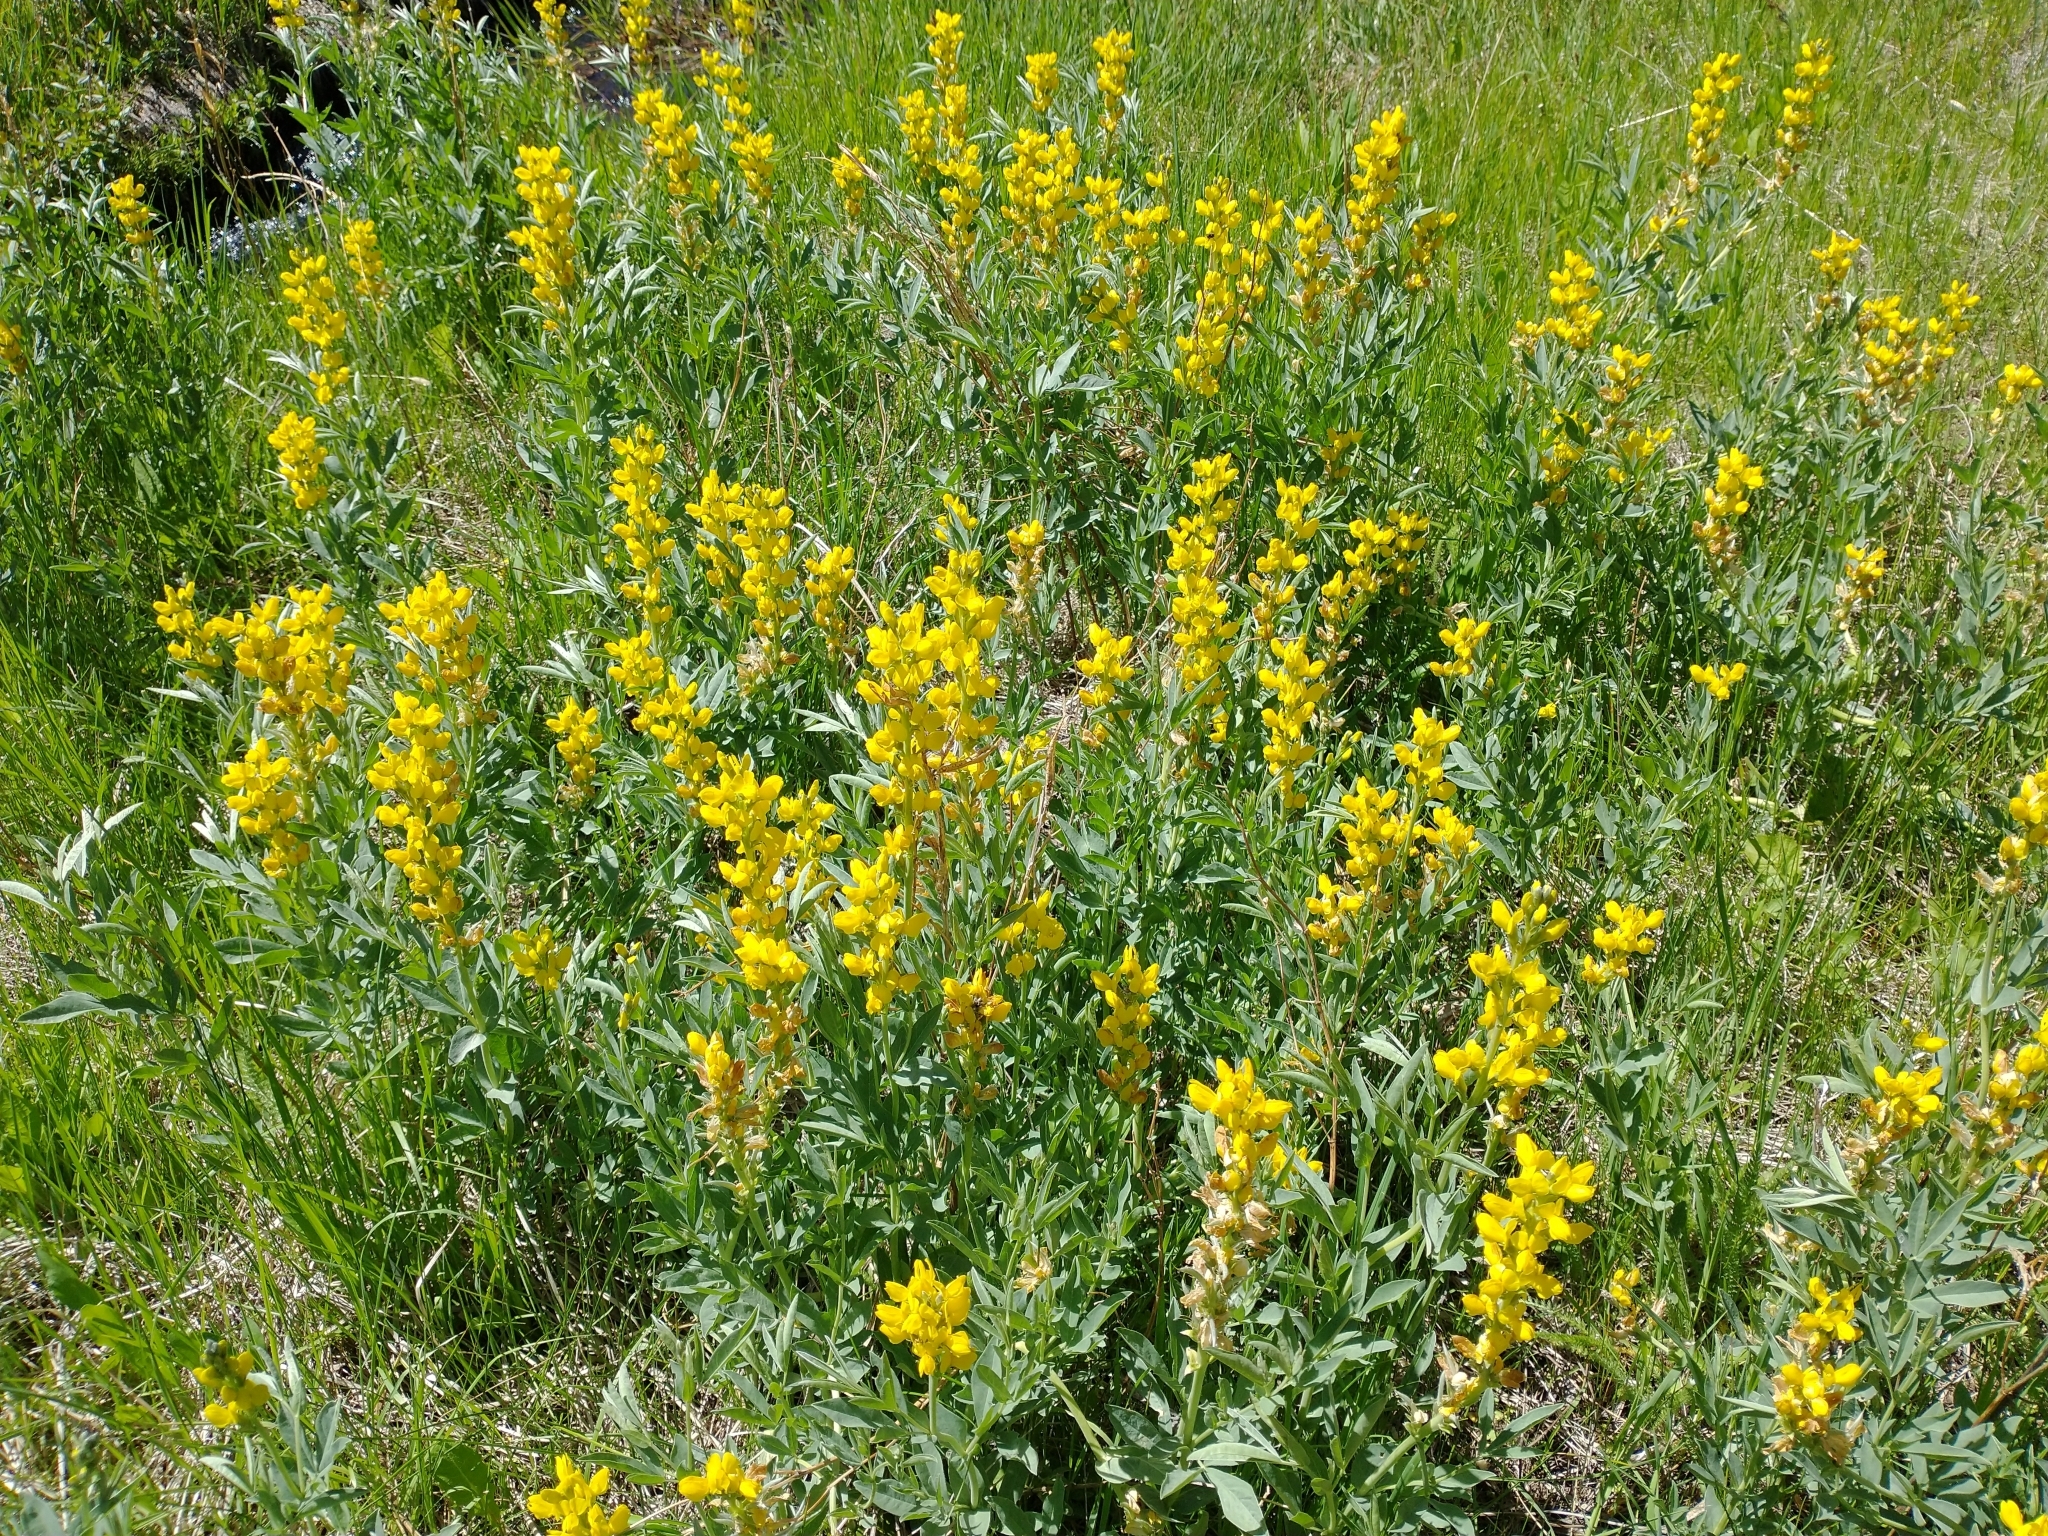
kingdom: Plantae
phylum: Tracheophyta
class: Magnoliopsida
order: Fabales
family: Fabaceae
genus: Thermopsis
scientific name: Thermopsis montana
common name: False lupin
